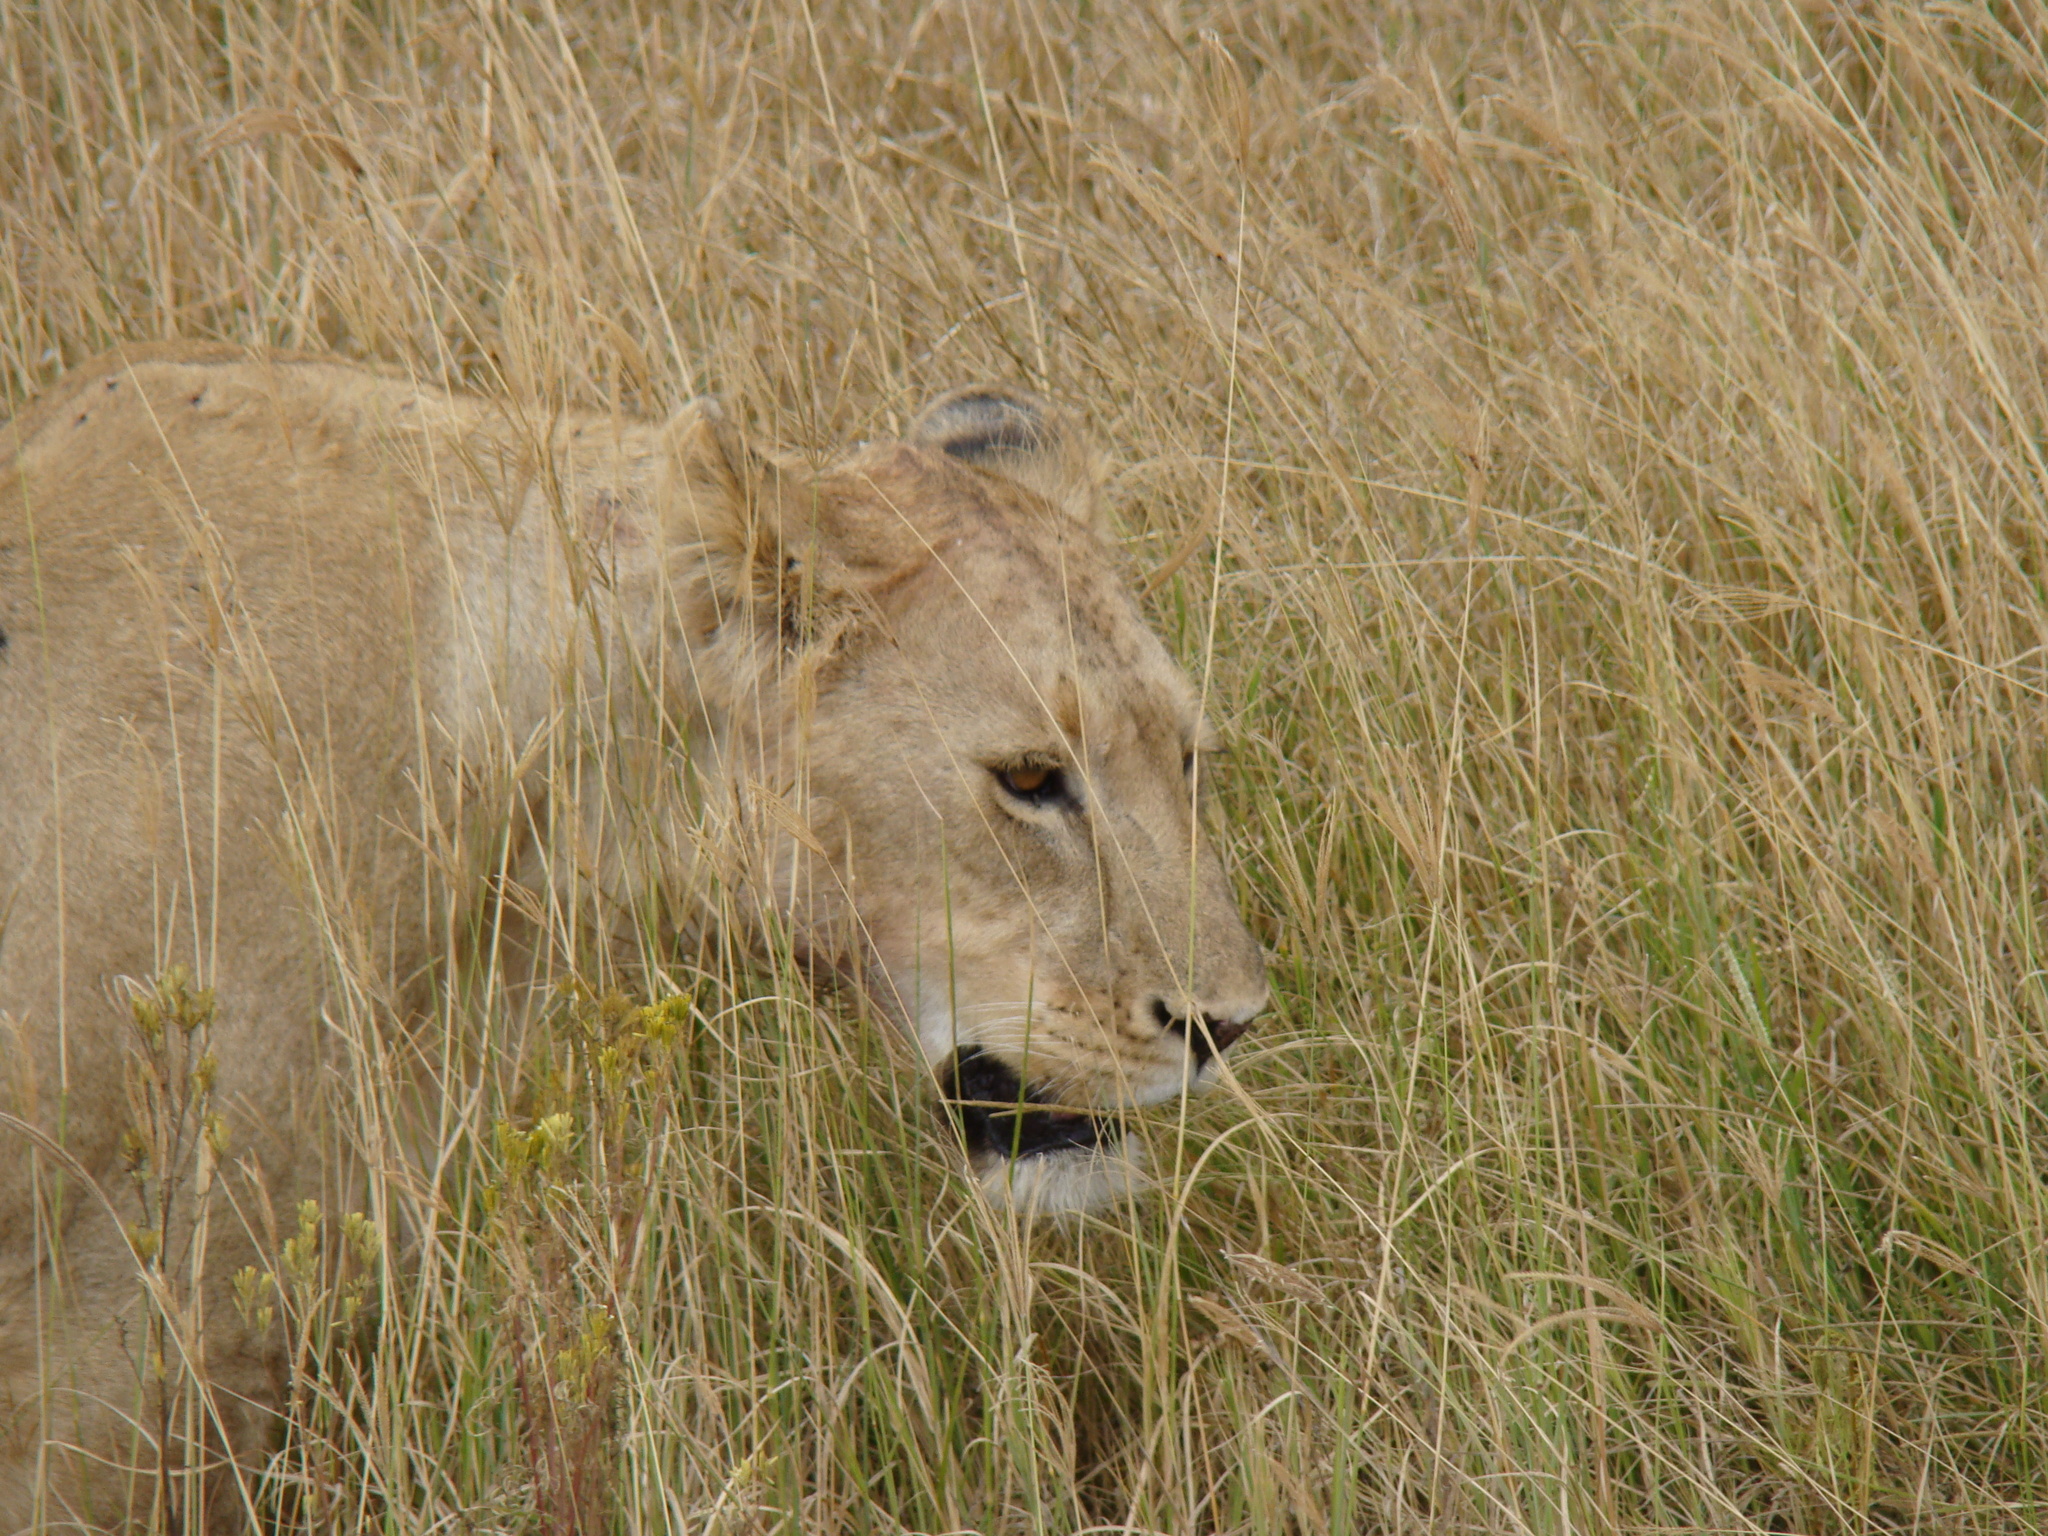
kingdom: Animalia
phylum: Chordata
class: Mammalia
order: Carnivora
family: Felidae
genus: Panthera
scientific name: Panthera leo
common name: Lion
